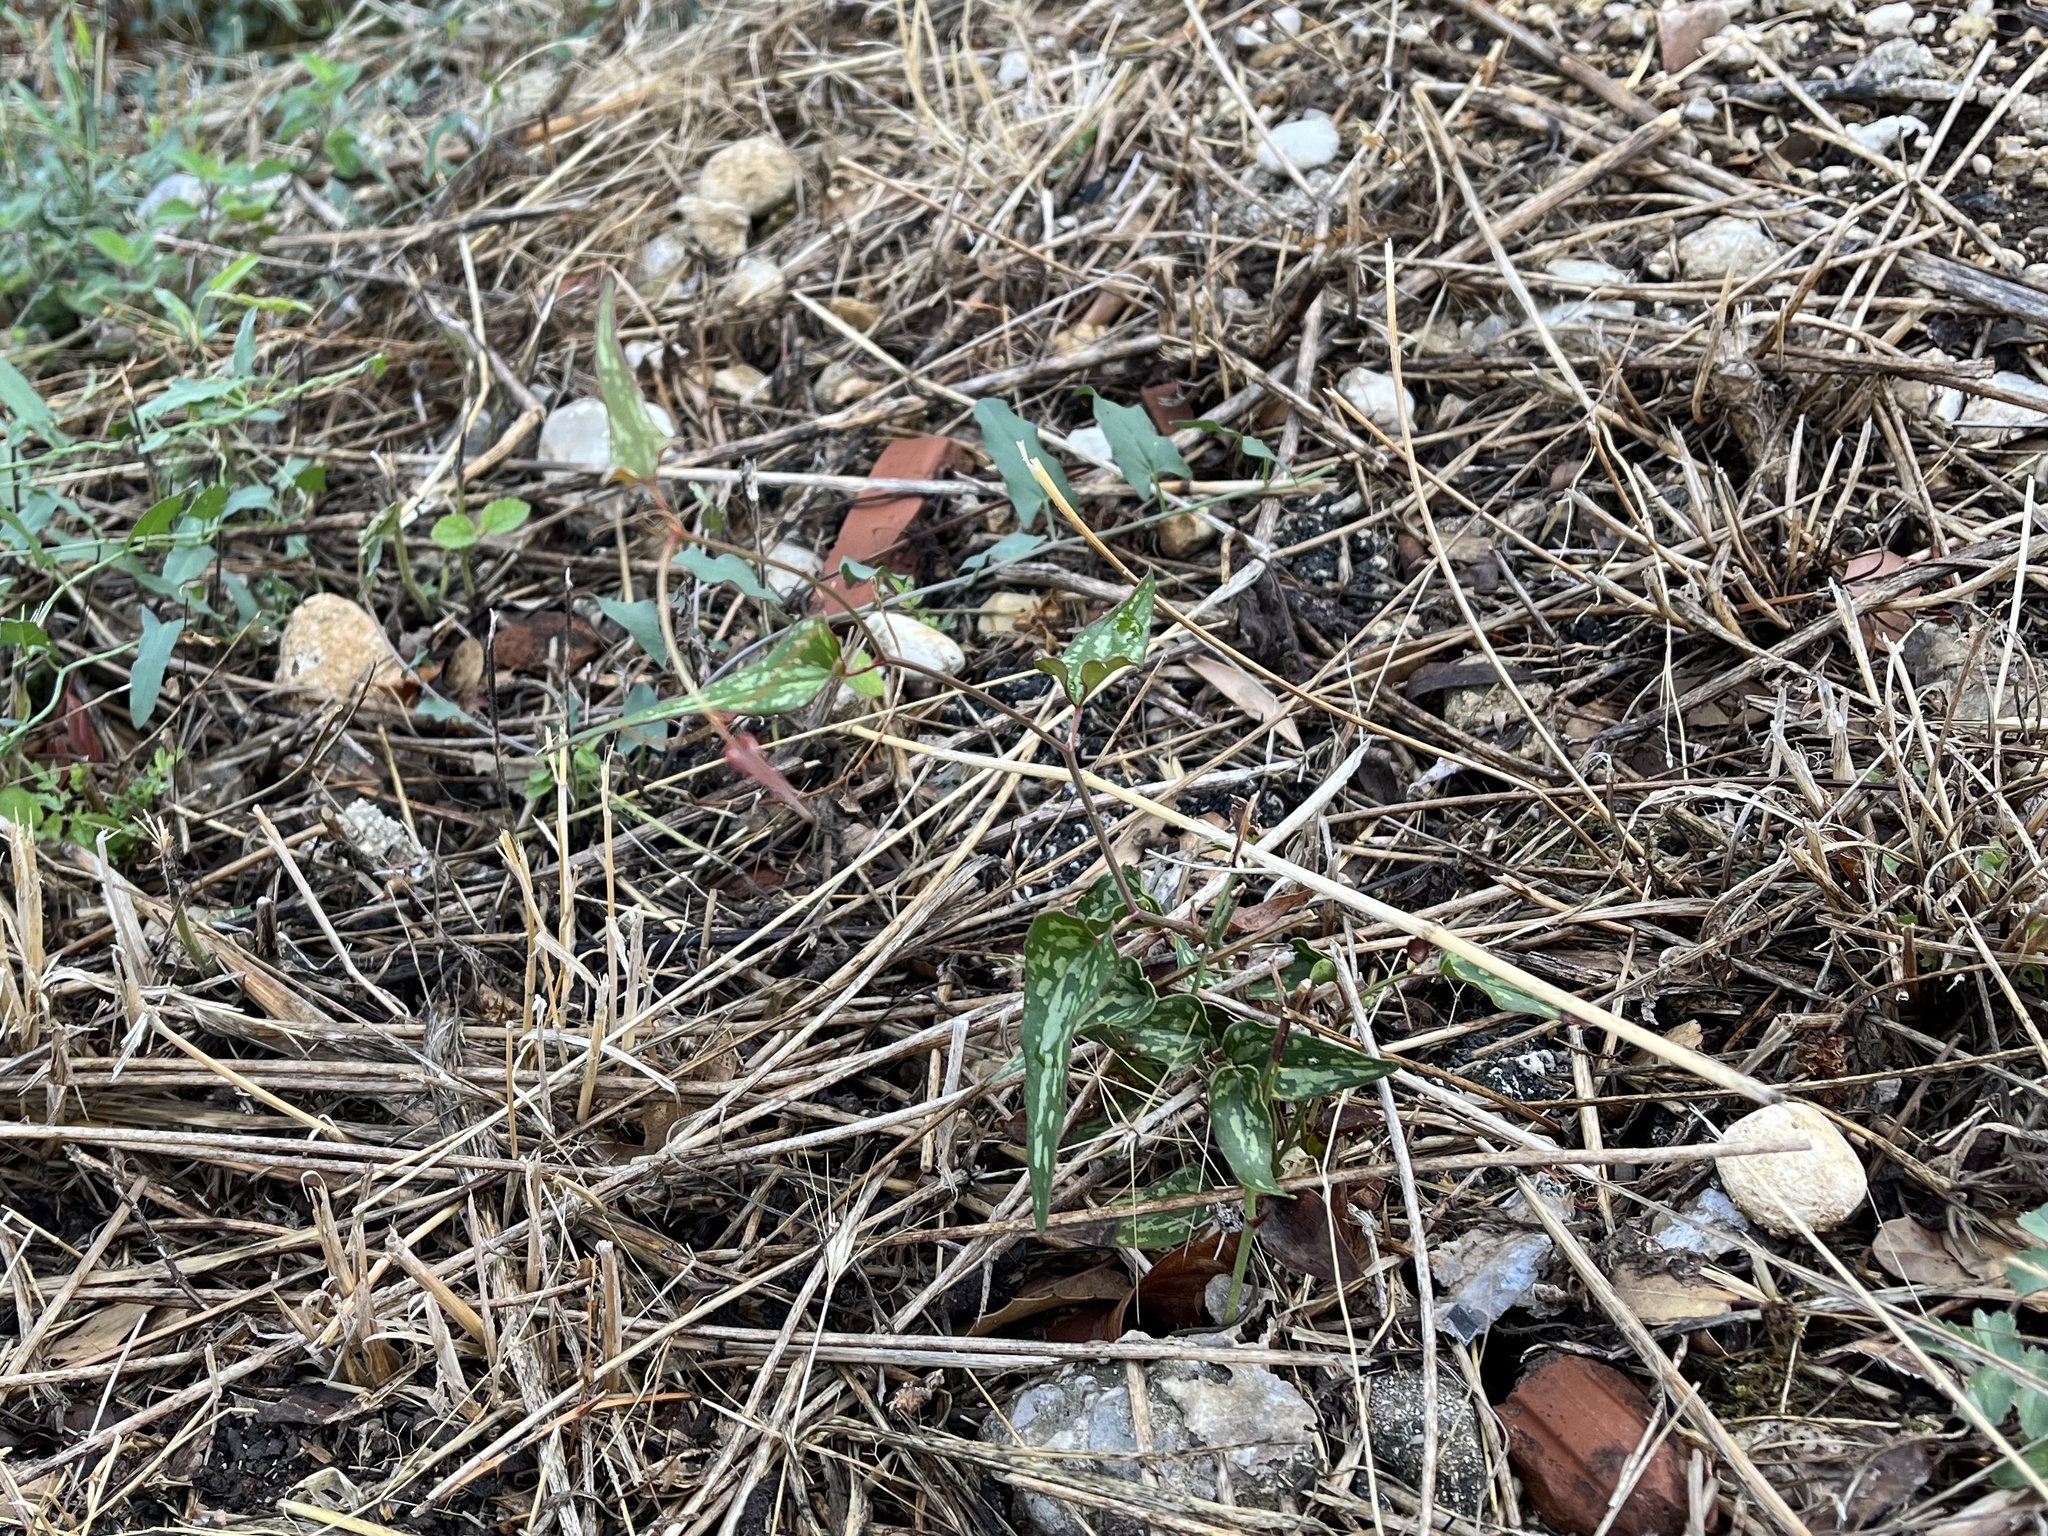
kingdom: Plantae
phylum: Tracheophyta
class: Liliopsida
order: Liliales
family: Smilacaceae
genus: Smilax
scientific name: Smilax aspera
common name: Common smilax
